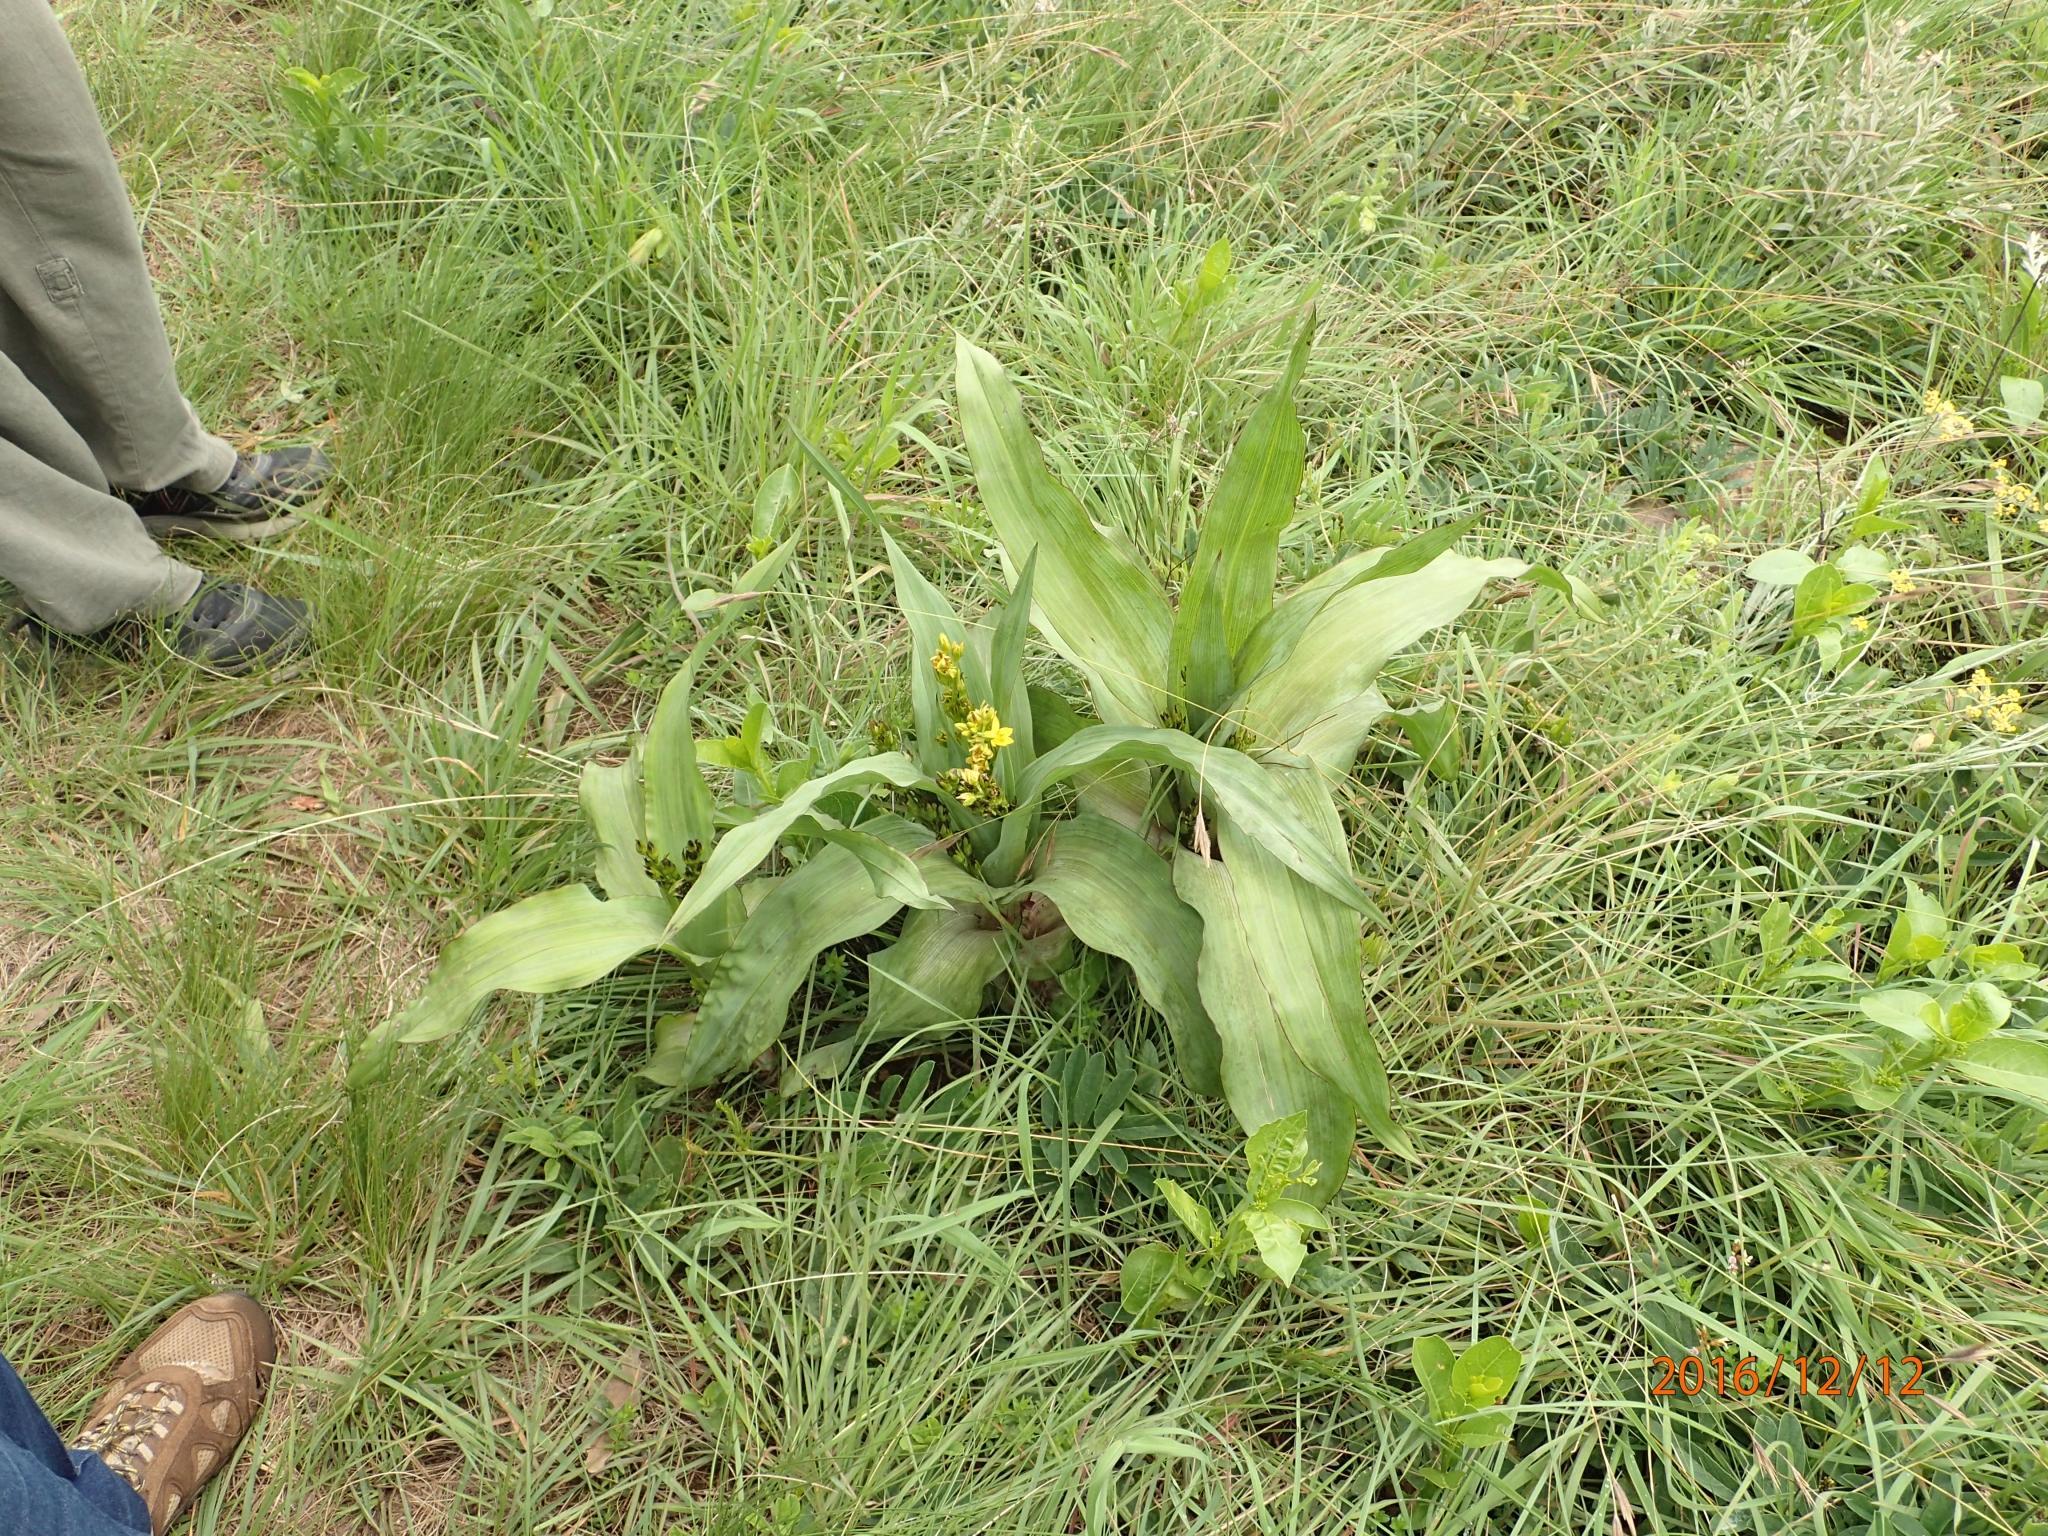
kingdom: Plantae
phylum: Tracheophyta
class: Liliopsida
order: Asparagales
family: Hypoxidaceae
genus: Hypoxis
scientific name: Hypoxis colchicifolia
